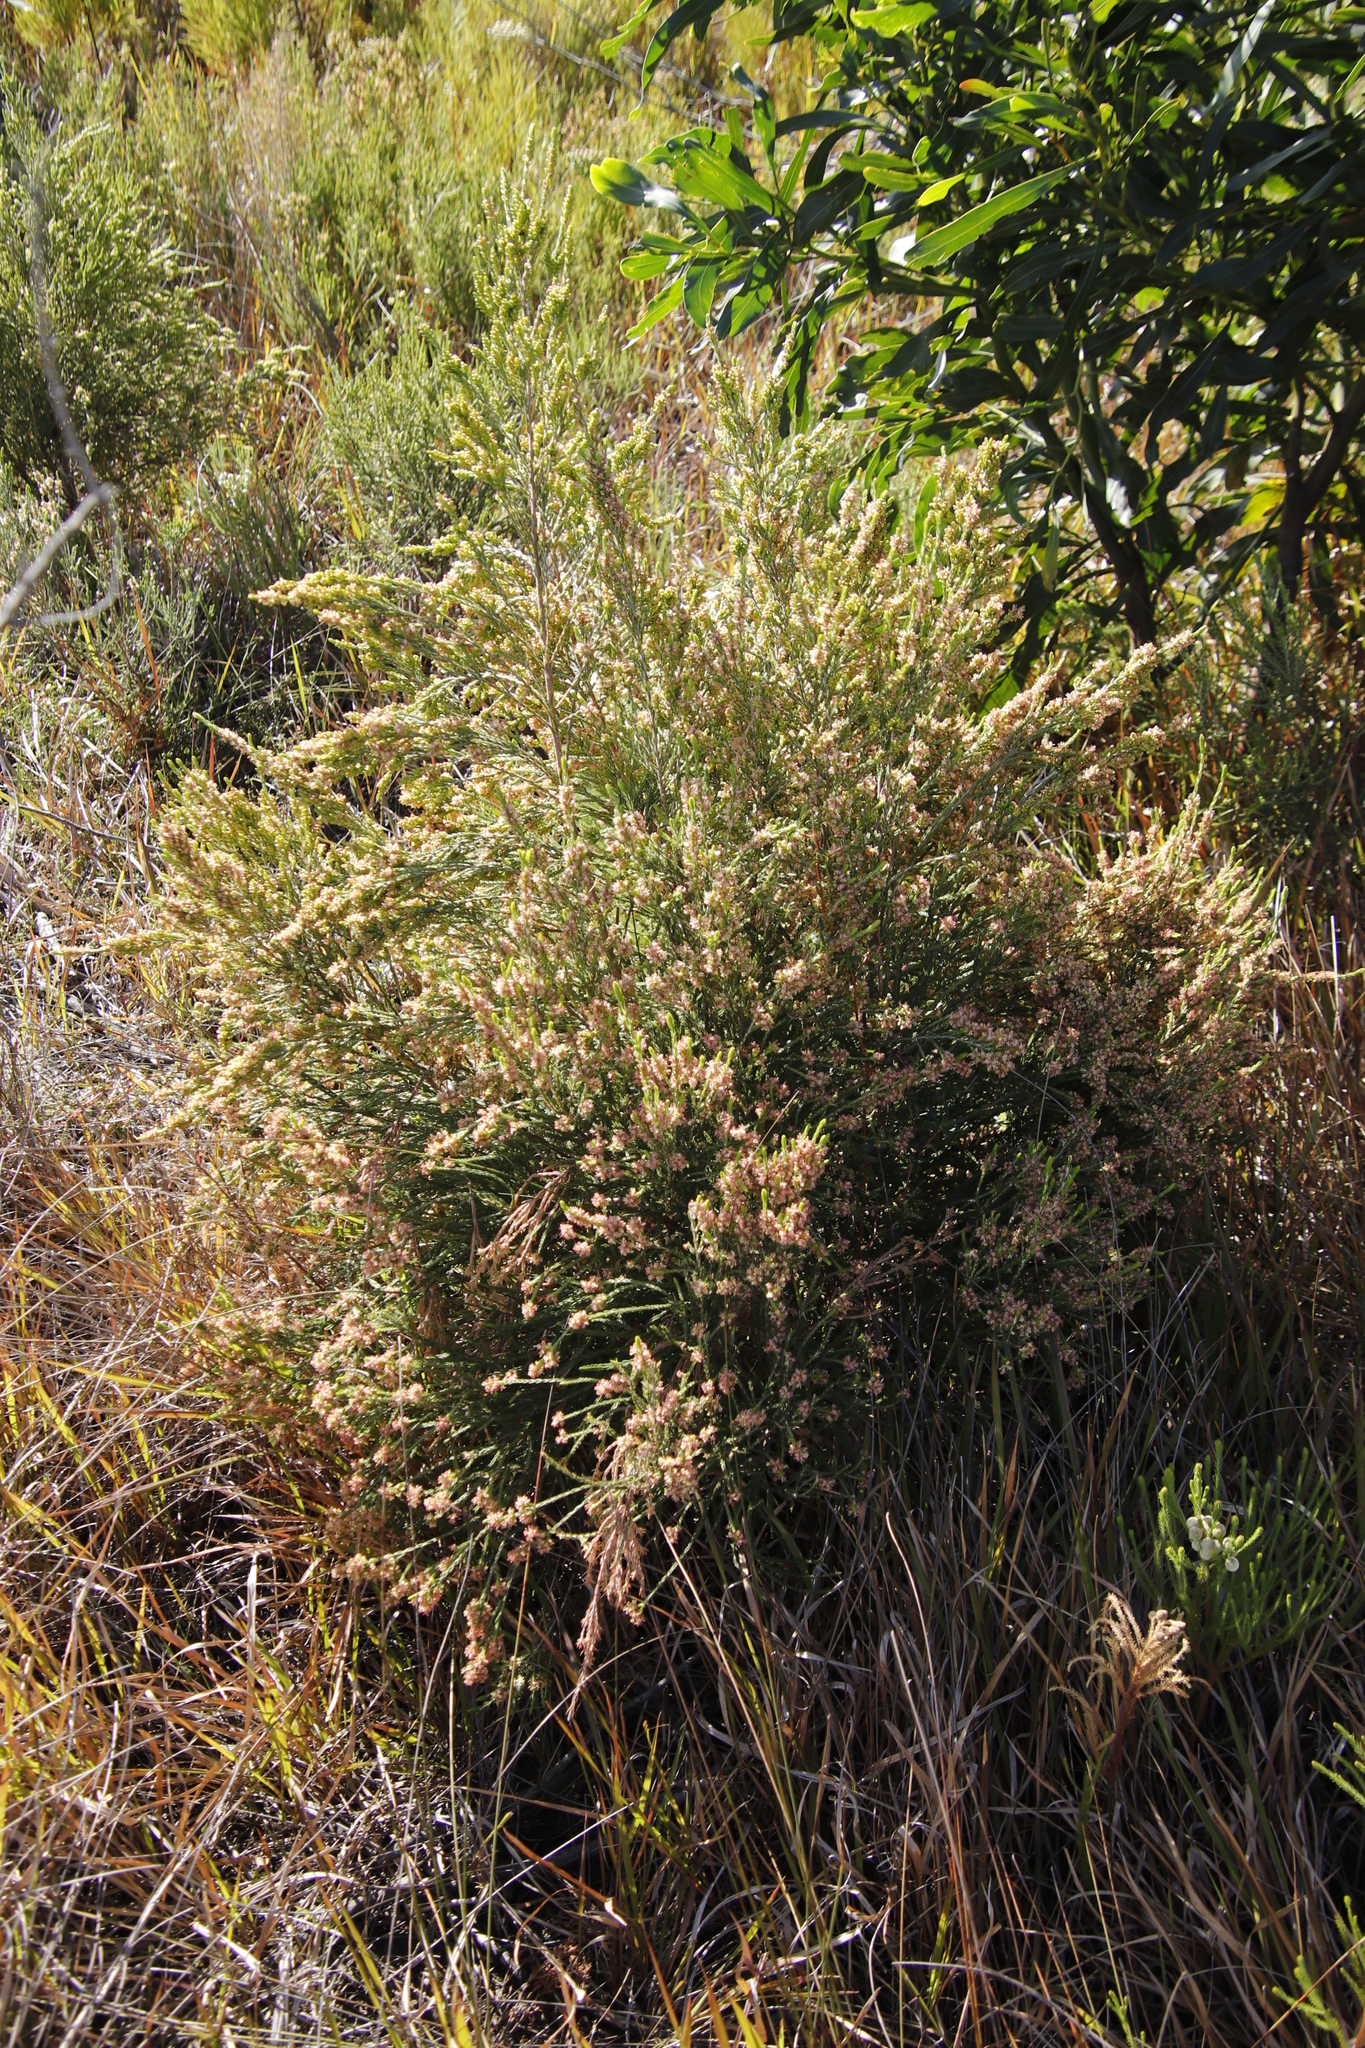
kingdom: Plantae
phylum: Tracheophyta
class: Magnoliopsida
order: Malvales
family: Thymelaeaceae
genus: Passerina
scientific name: Passerina corymbosa
